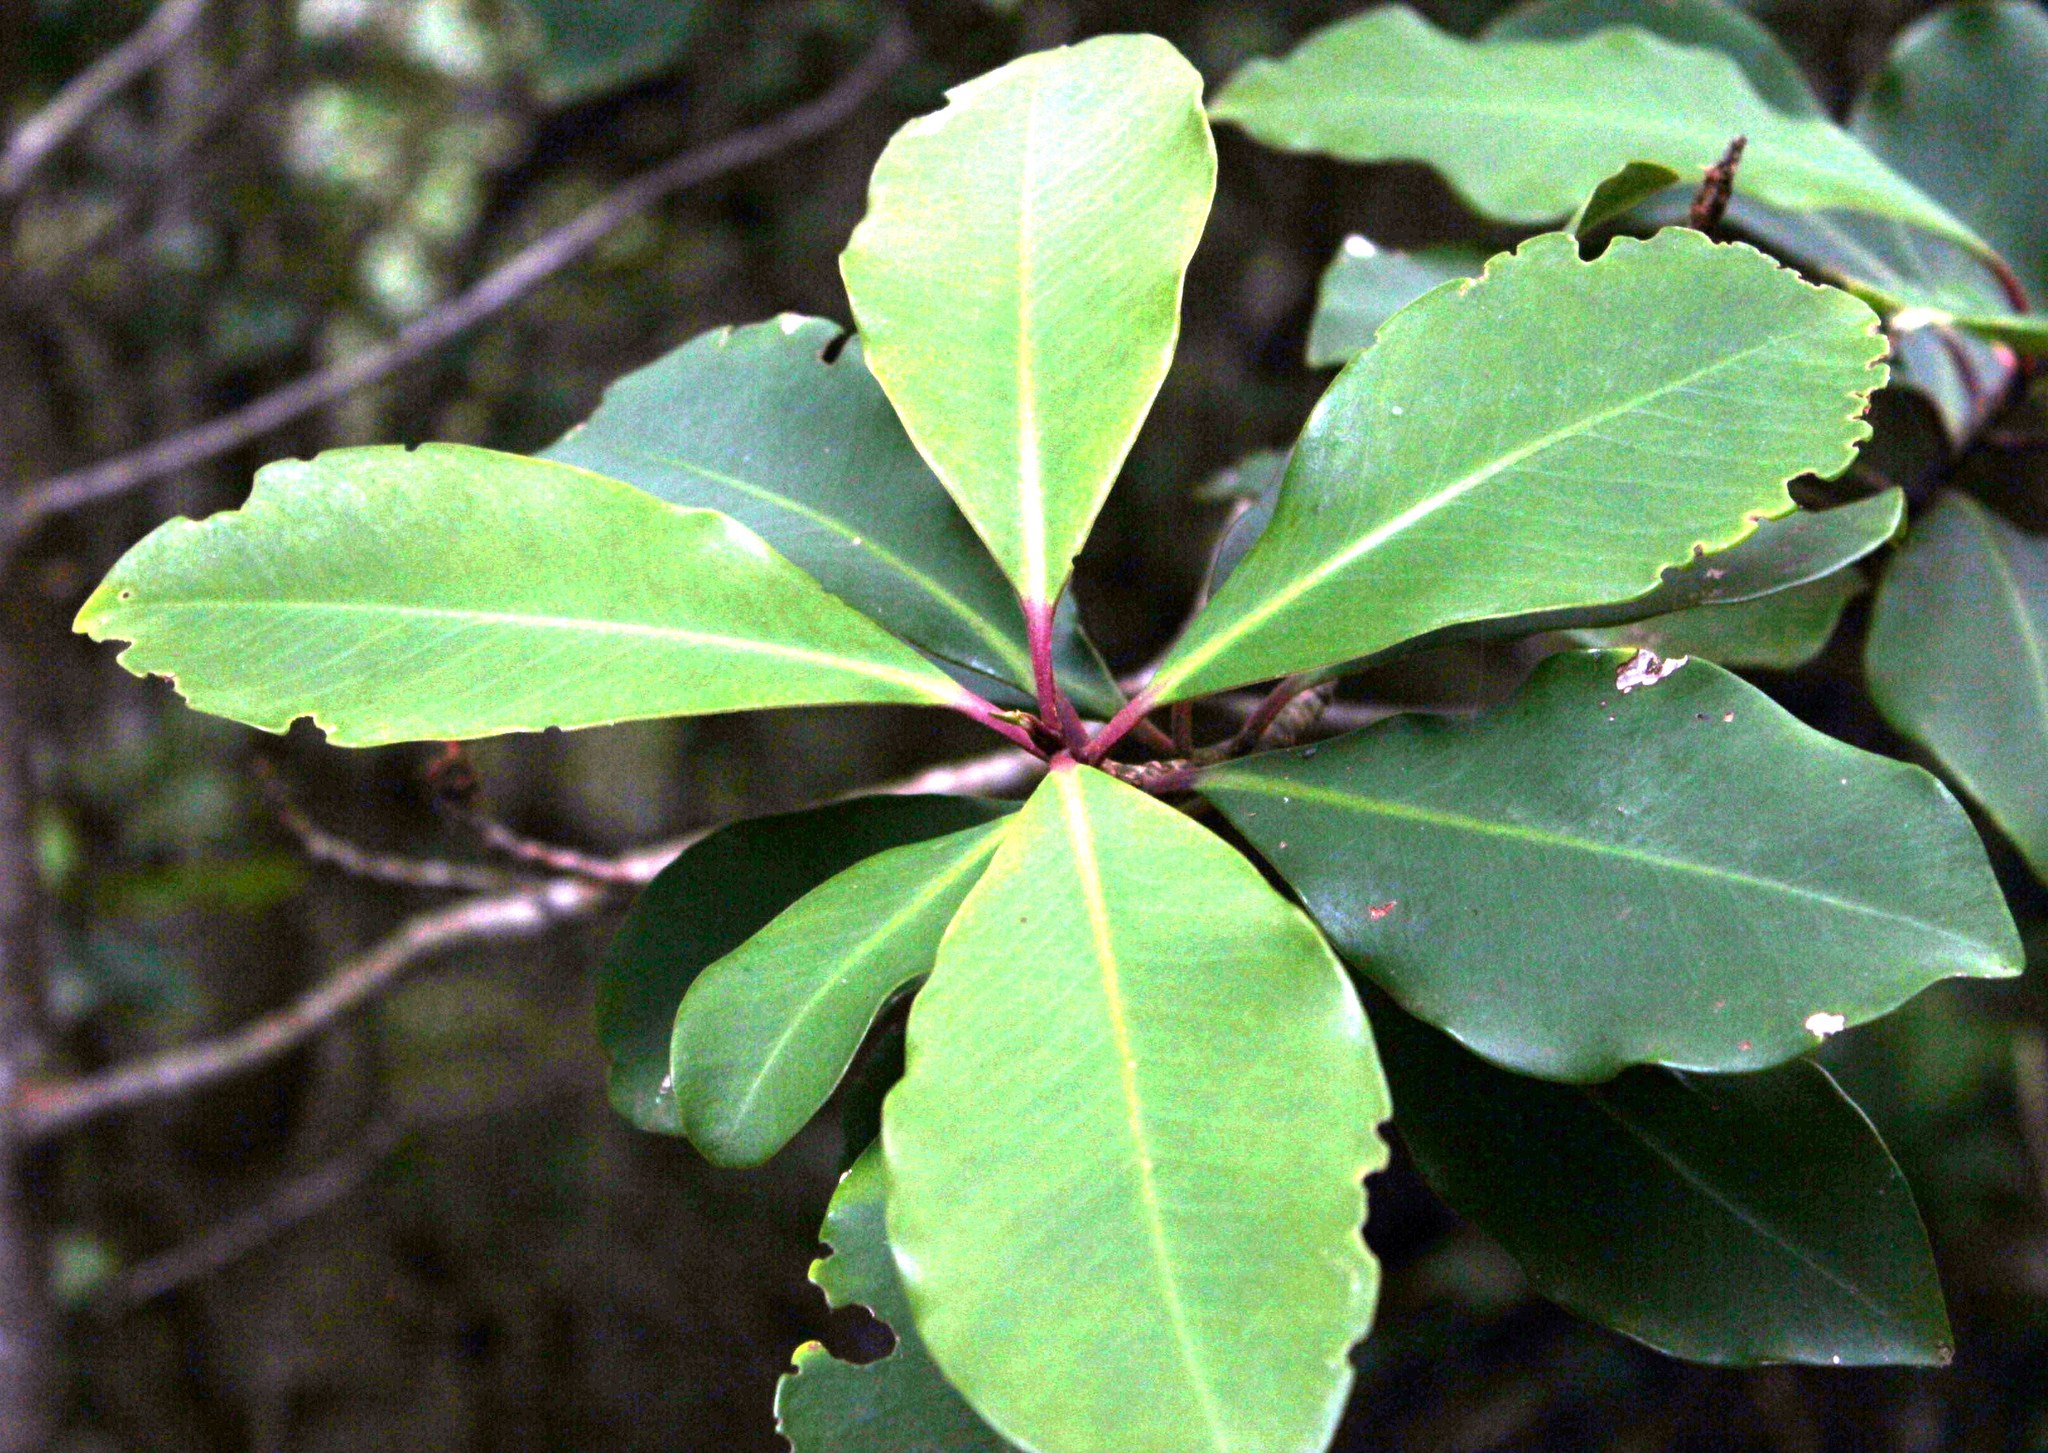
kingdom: Plantae
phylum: Tracheophyta
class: Magnoliopsida
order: Ericales
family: Primulaceae
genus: Myrsine
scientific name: Myrsine melanophloeos
